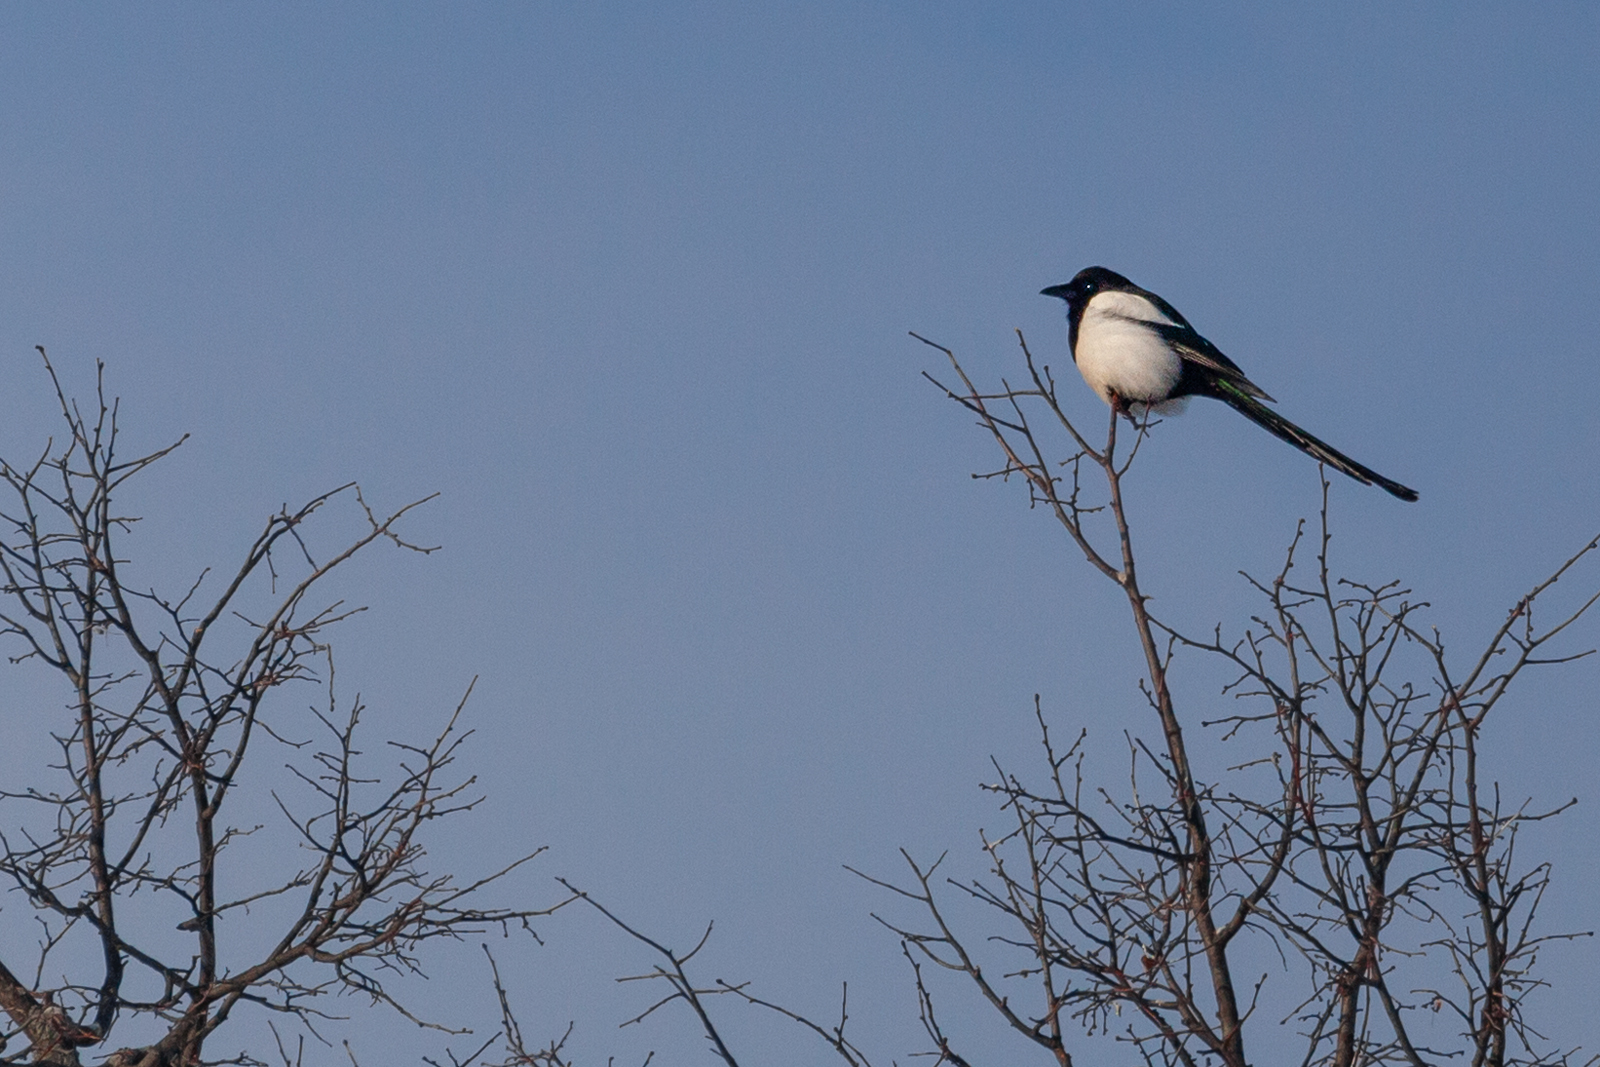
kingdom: Animalia
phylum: Chordata
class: Aves
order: Passeriformes
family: Corvidae
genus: Pica
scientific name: Pica pica
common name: Eurasian magpie
